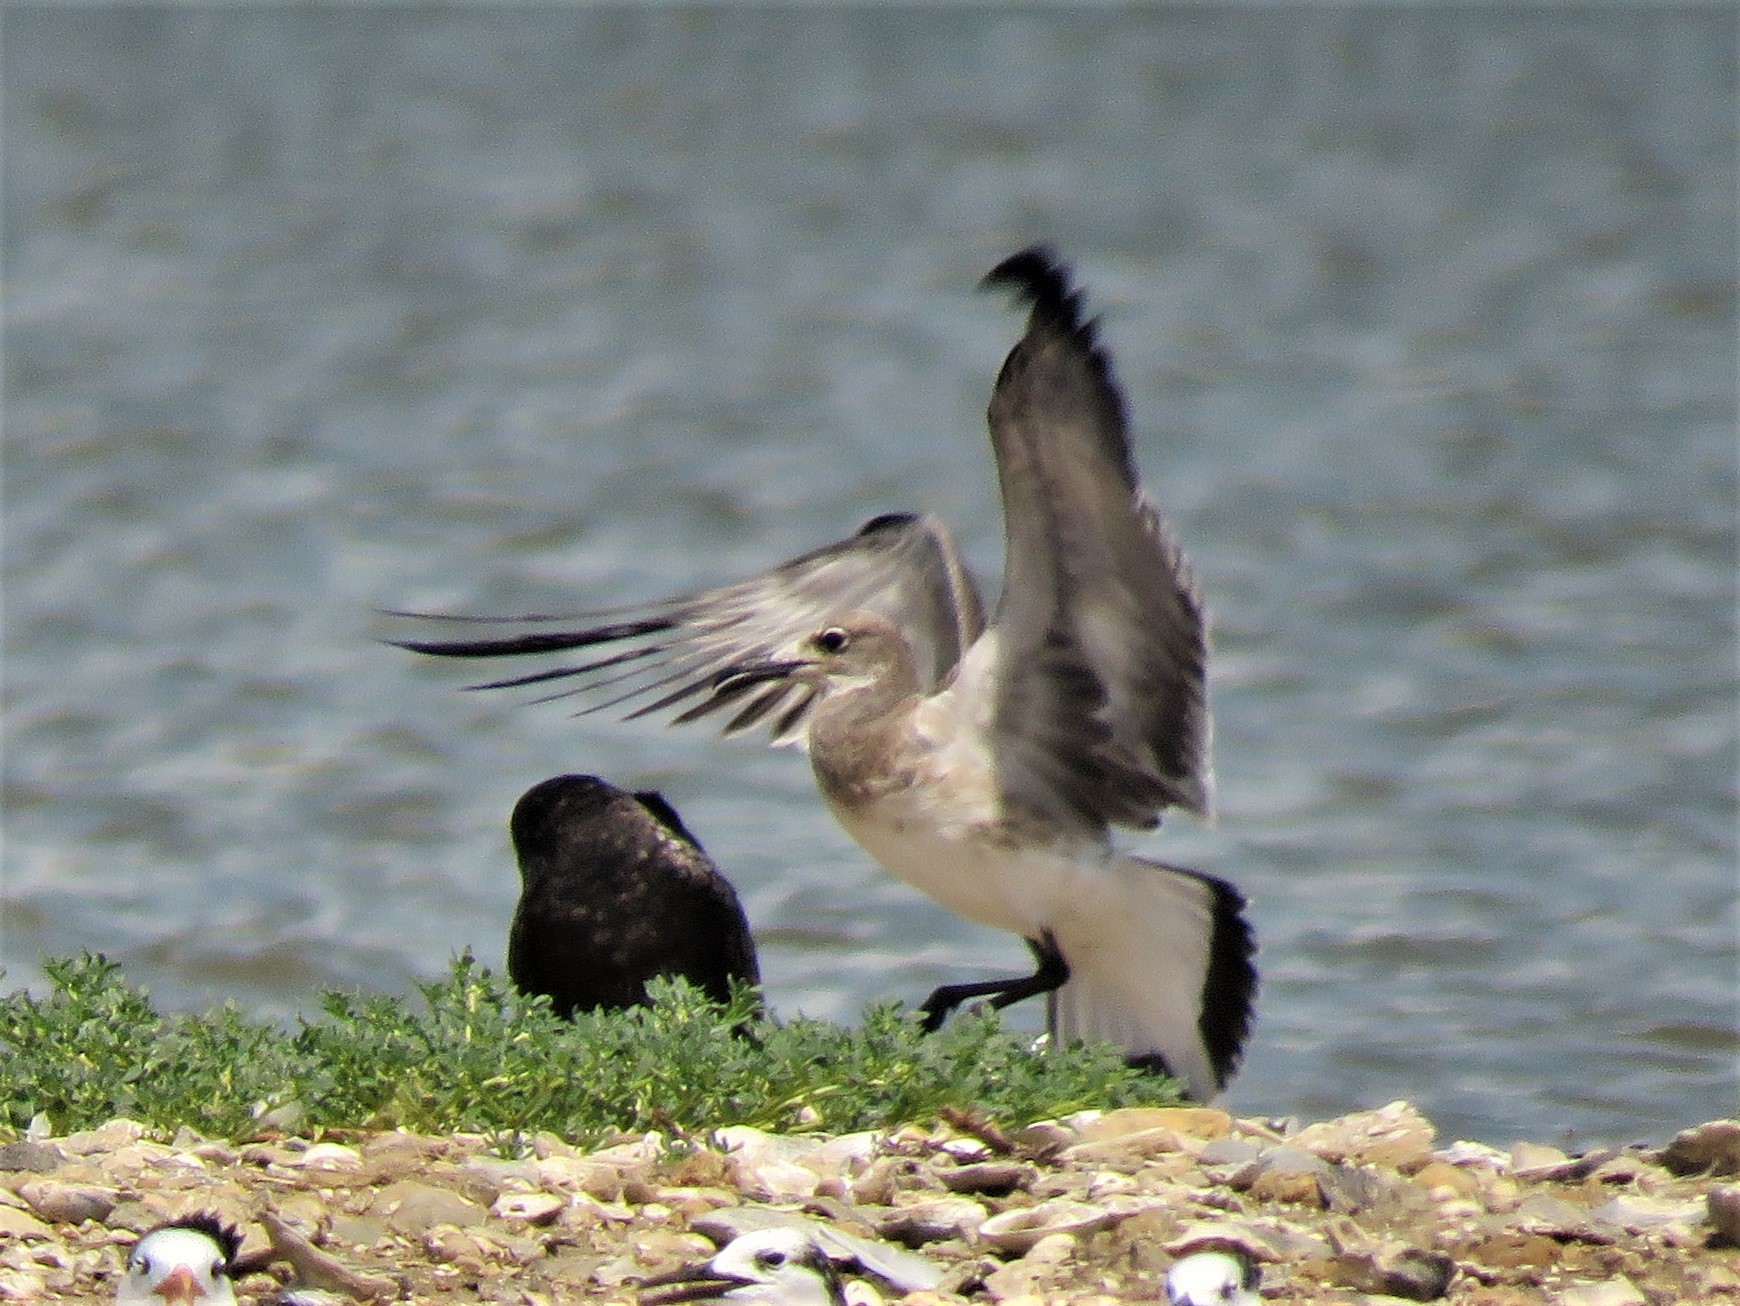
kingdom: Animalia
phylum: Chordata
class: Aves
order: Charadriiformes
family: Laridae
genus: Leucophaeus
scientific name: Leucophaeus atricilla
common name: Laughing gull
